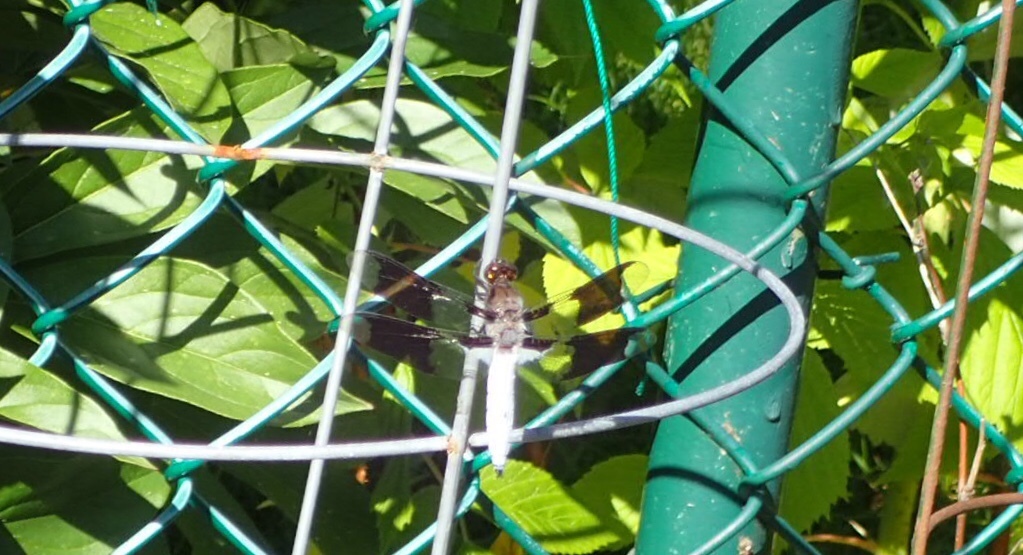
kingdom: Animalia
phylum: Arthropoda
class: Insecta
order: Odonata
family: Libellulidae
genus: Plathemis
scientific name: Plathemis lydia
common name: Common whitetail
